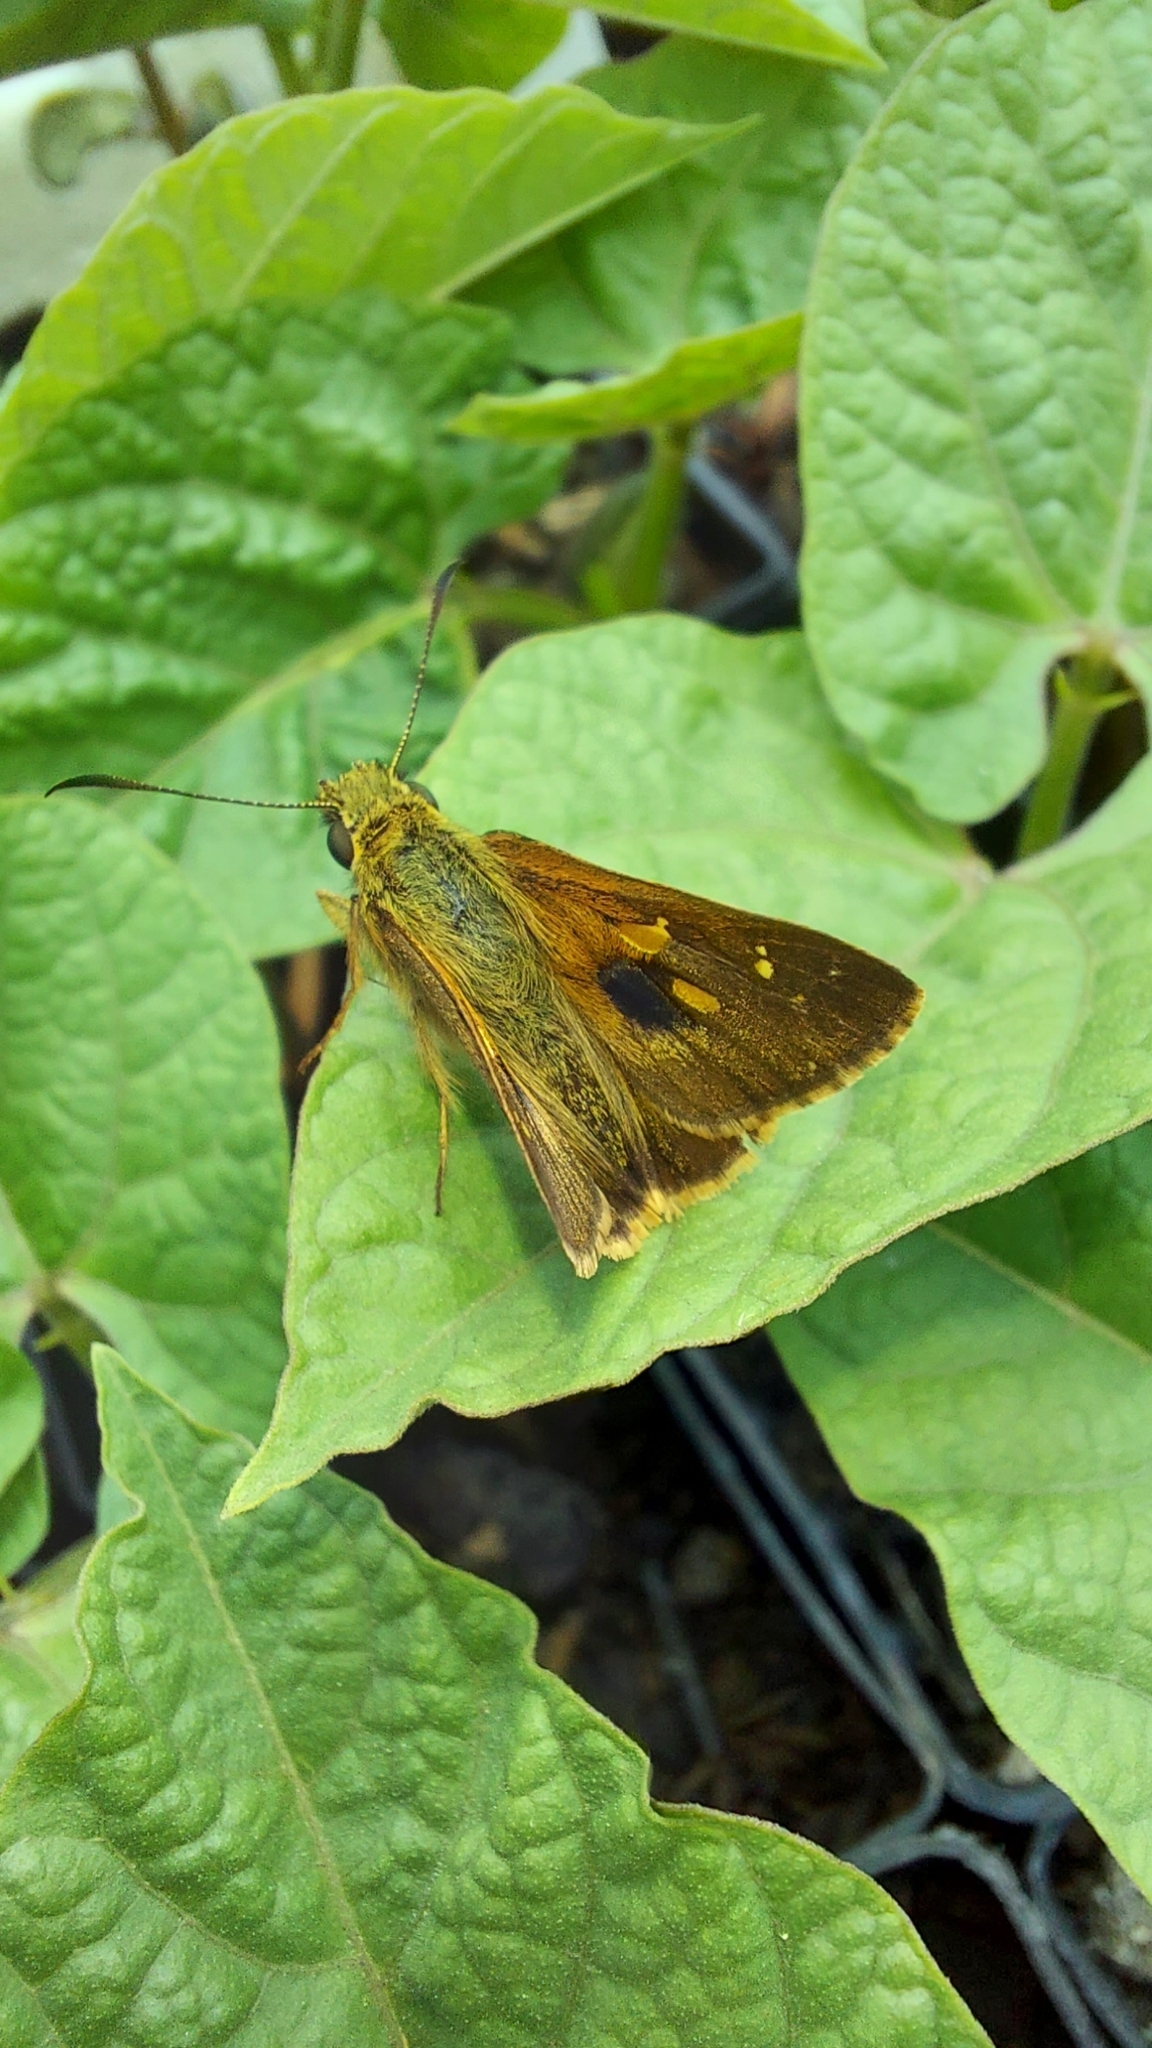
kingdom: Animalia
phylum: Arthropoda
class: Insecta
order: Lepidoptera
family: Hesperiidae
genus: Toxidia
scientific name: Toxidia
